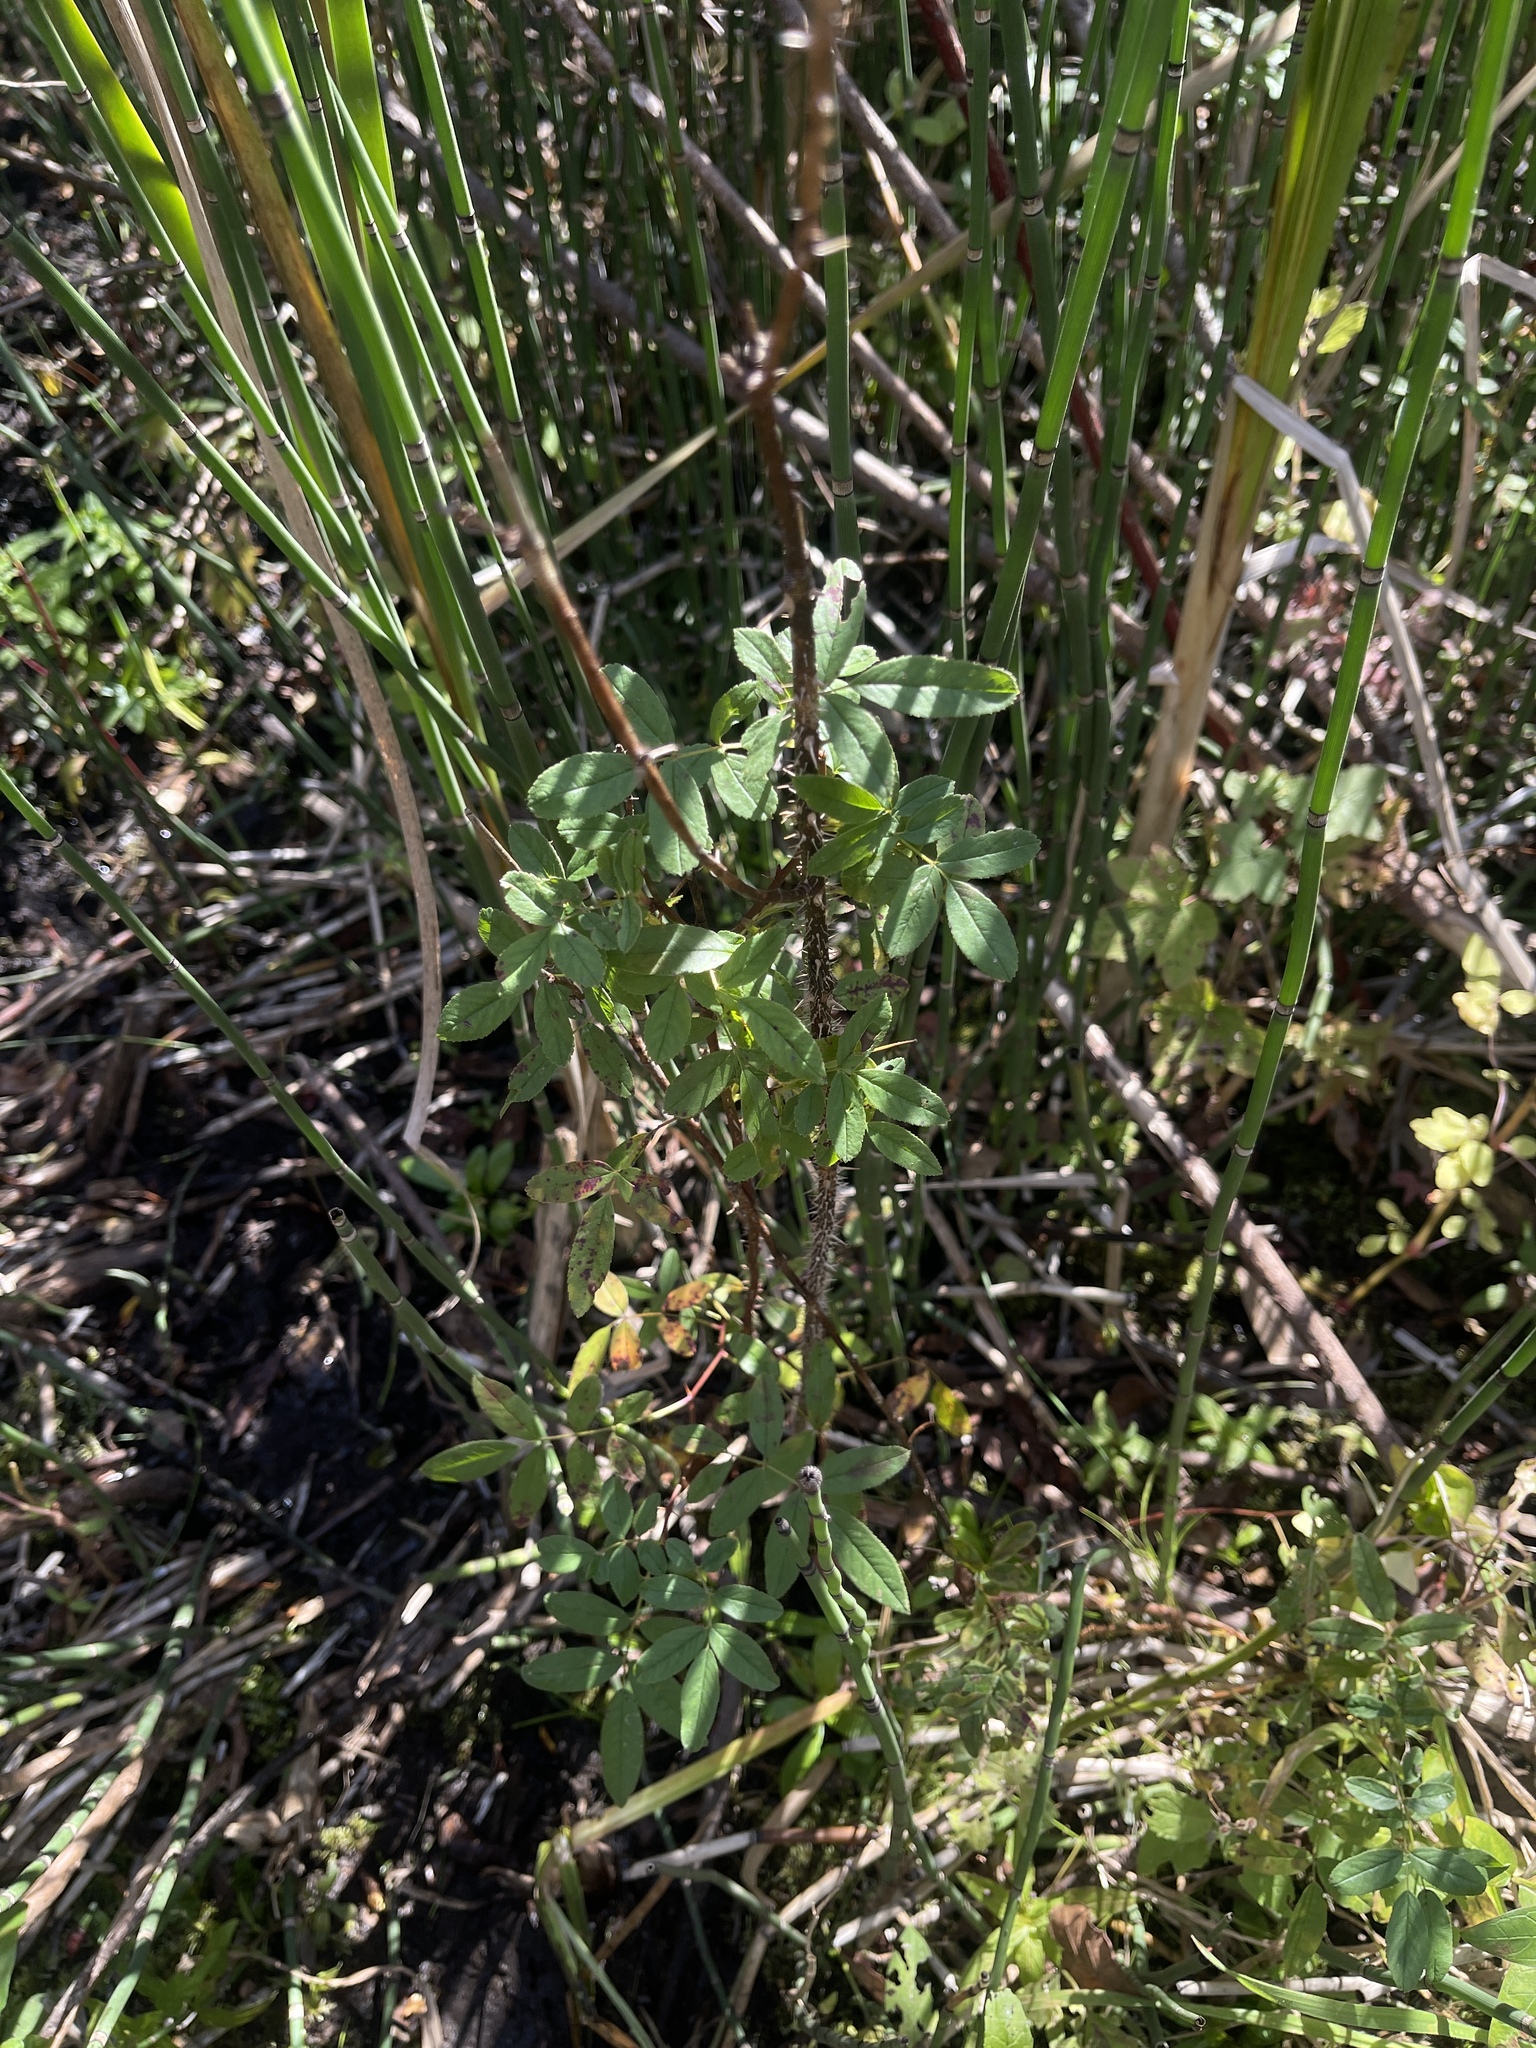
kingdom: Plantae
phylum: Tracheophyta
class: Magnoliopsida
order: Rosales
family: Rosaceae
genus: Rosa
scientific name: Rosa palustris
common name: Swamp rose
